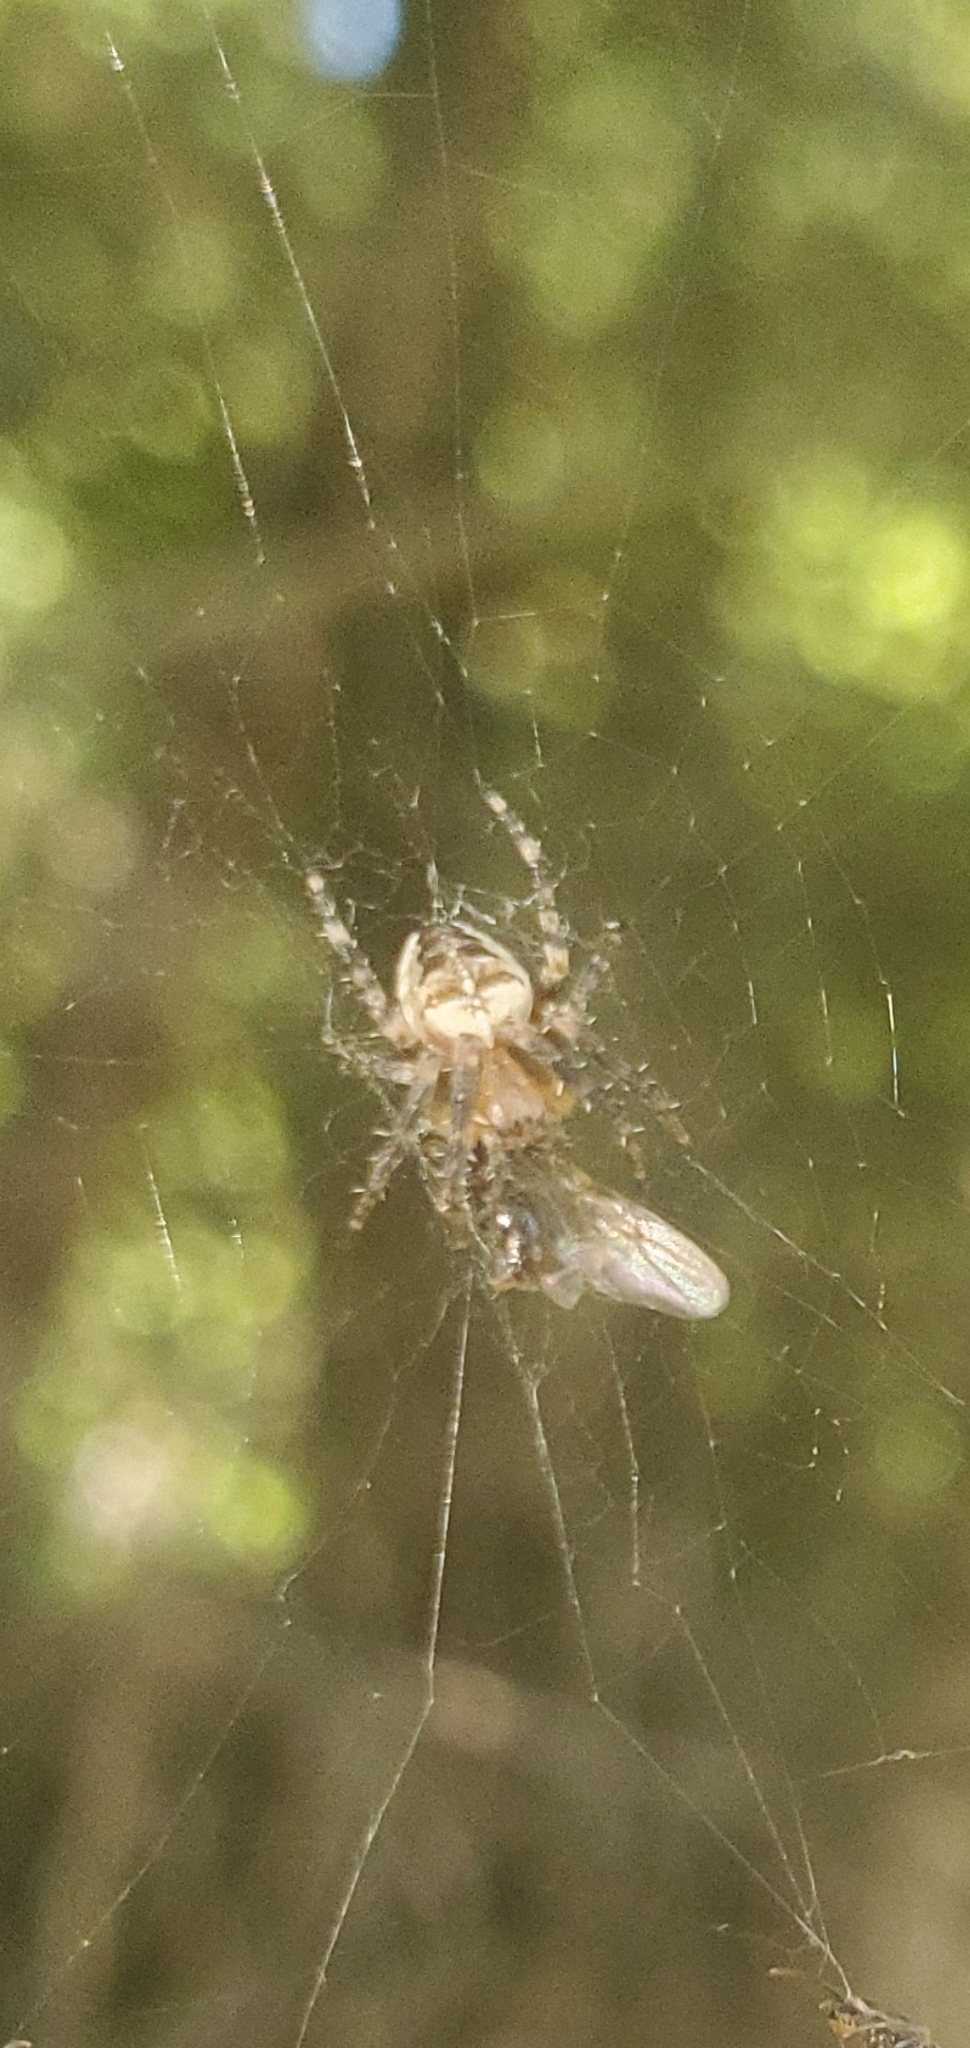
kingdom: Animalia
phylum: Arthropoda
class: Arachnida
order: Araneae
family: Araneidae
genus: Araneus
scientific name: Araneus diadematus
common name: Cross orbweaver
